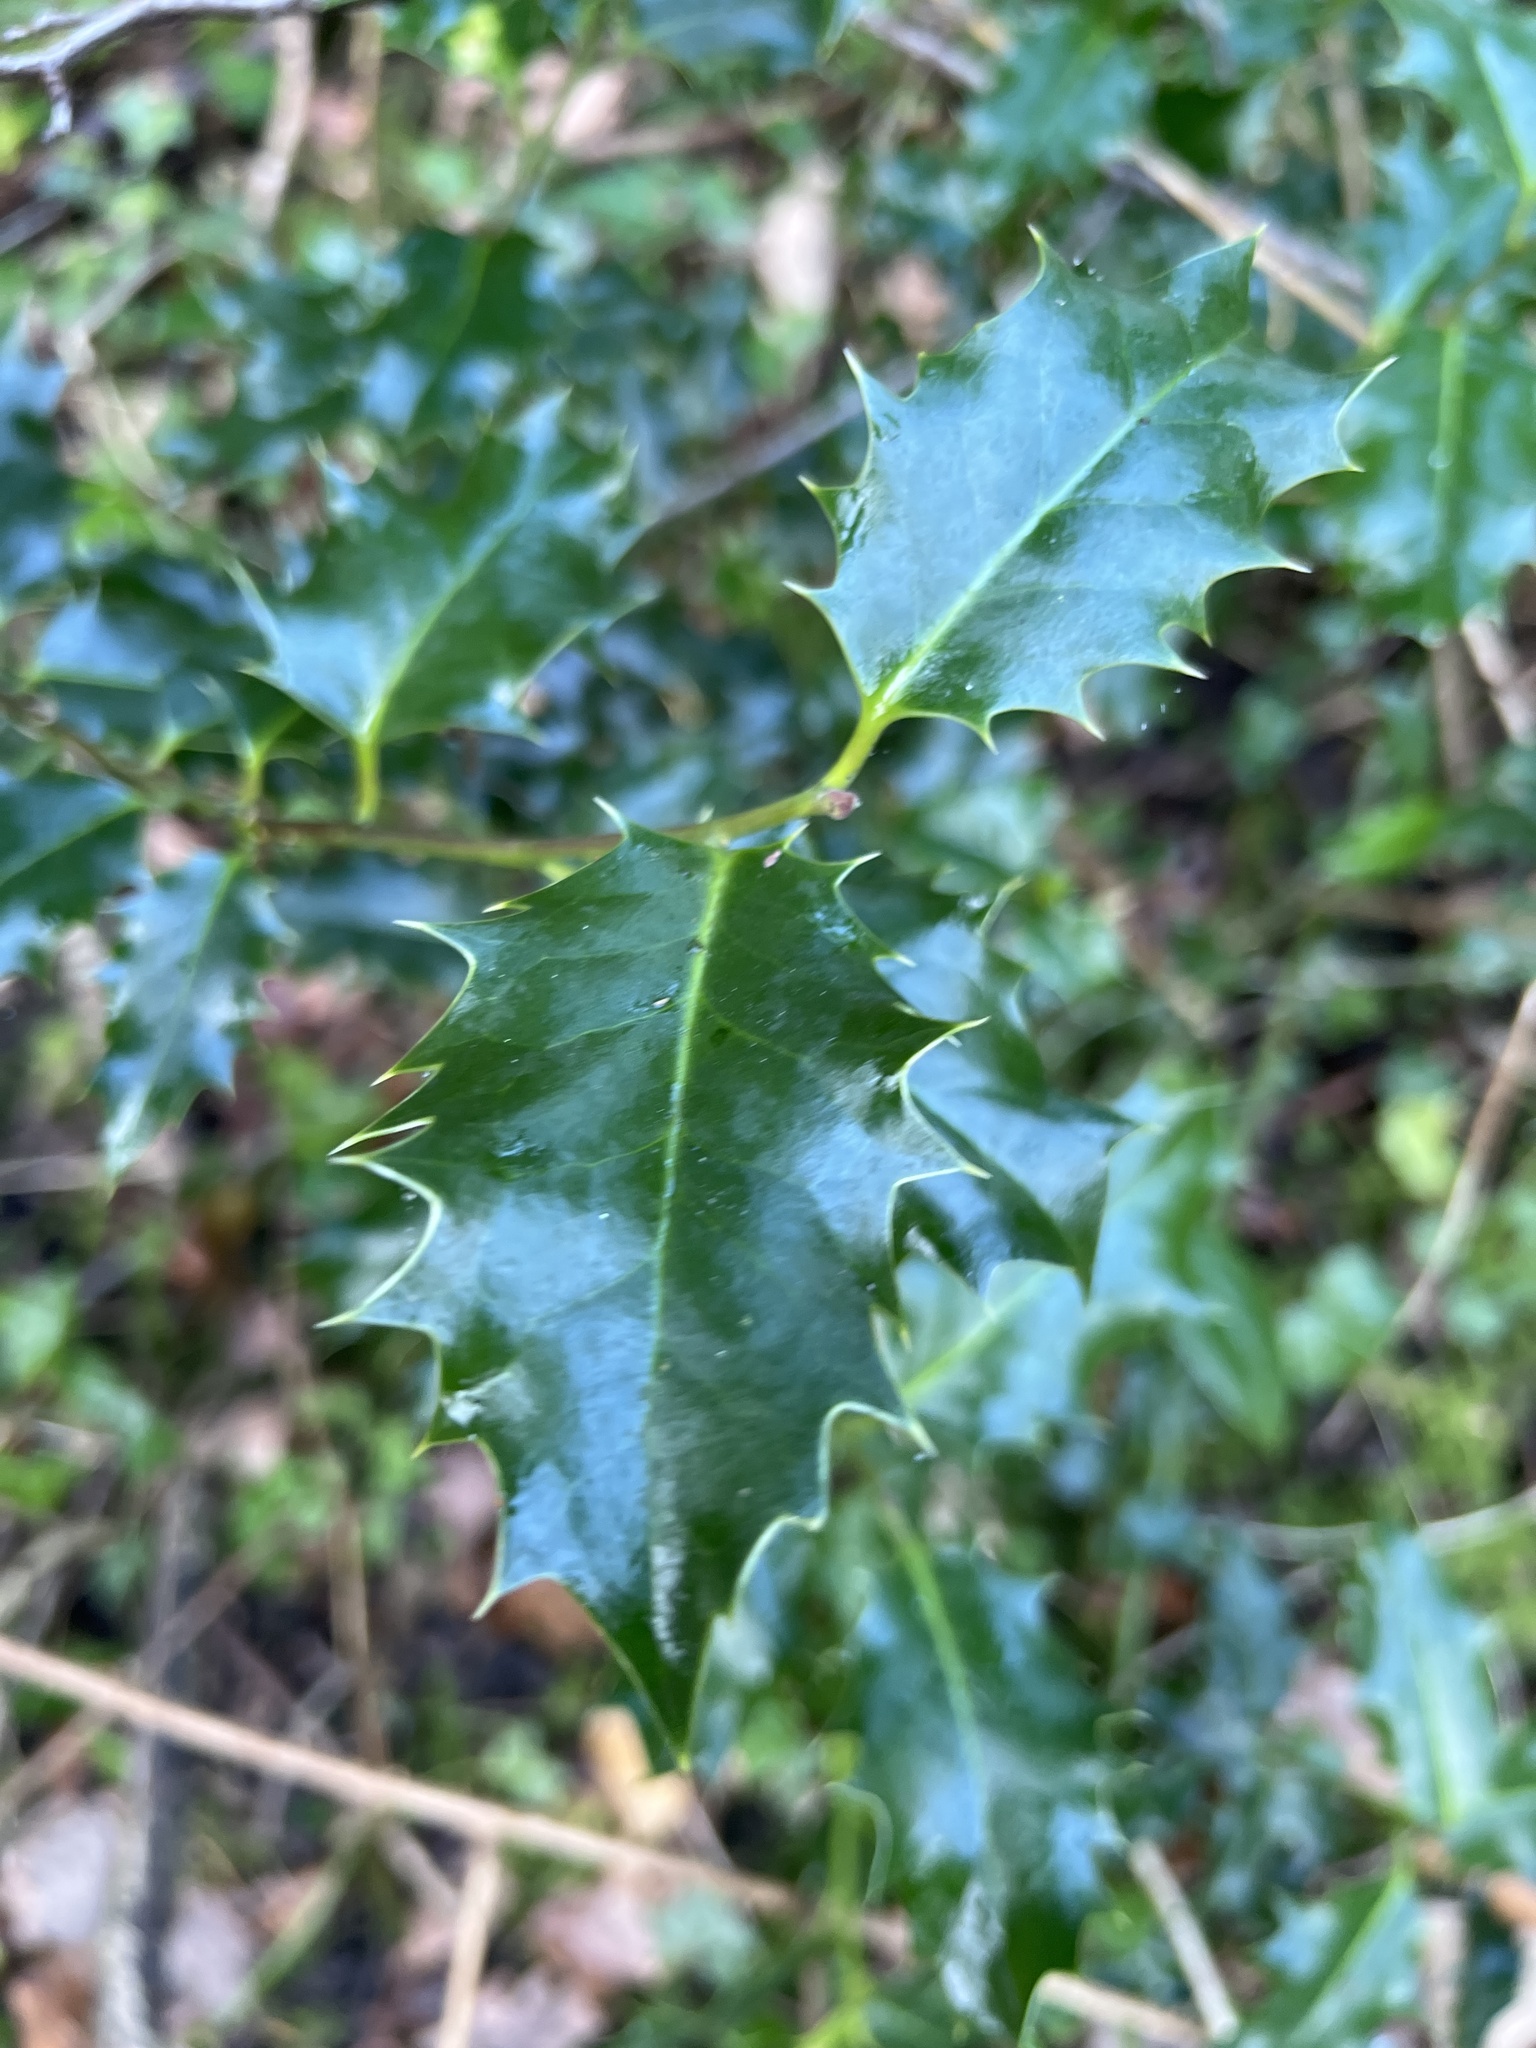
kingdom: Plantae
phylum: Tracheophyta
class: Magnoliopsida
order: Aquifoliales
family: Aquifoliaceae
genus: Ilex
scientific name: Ilex aquifolium
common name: English holly
